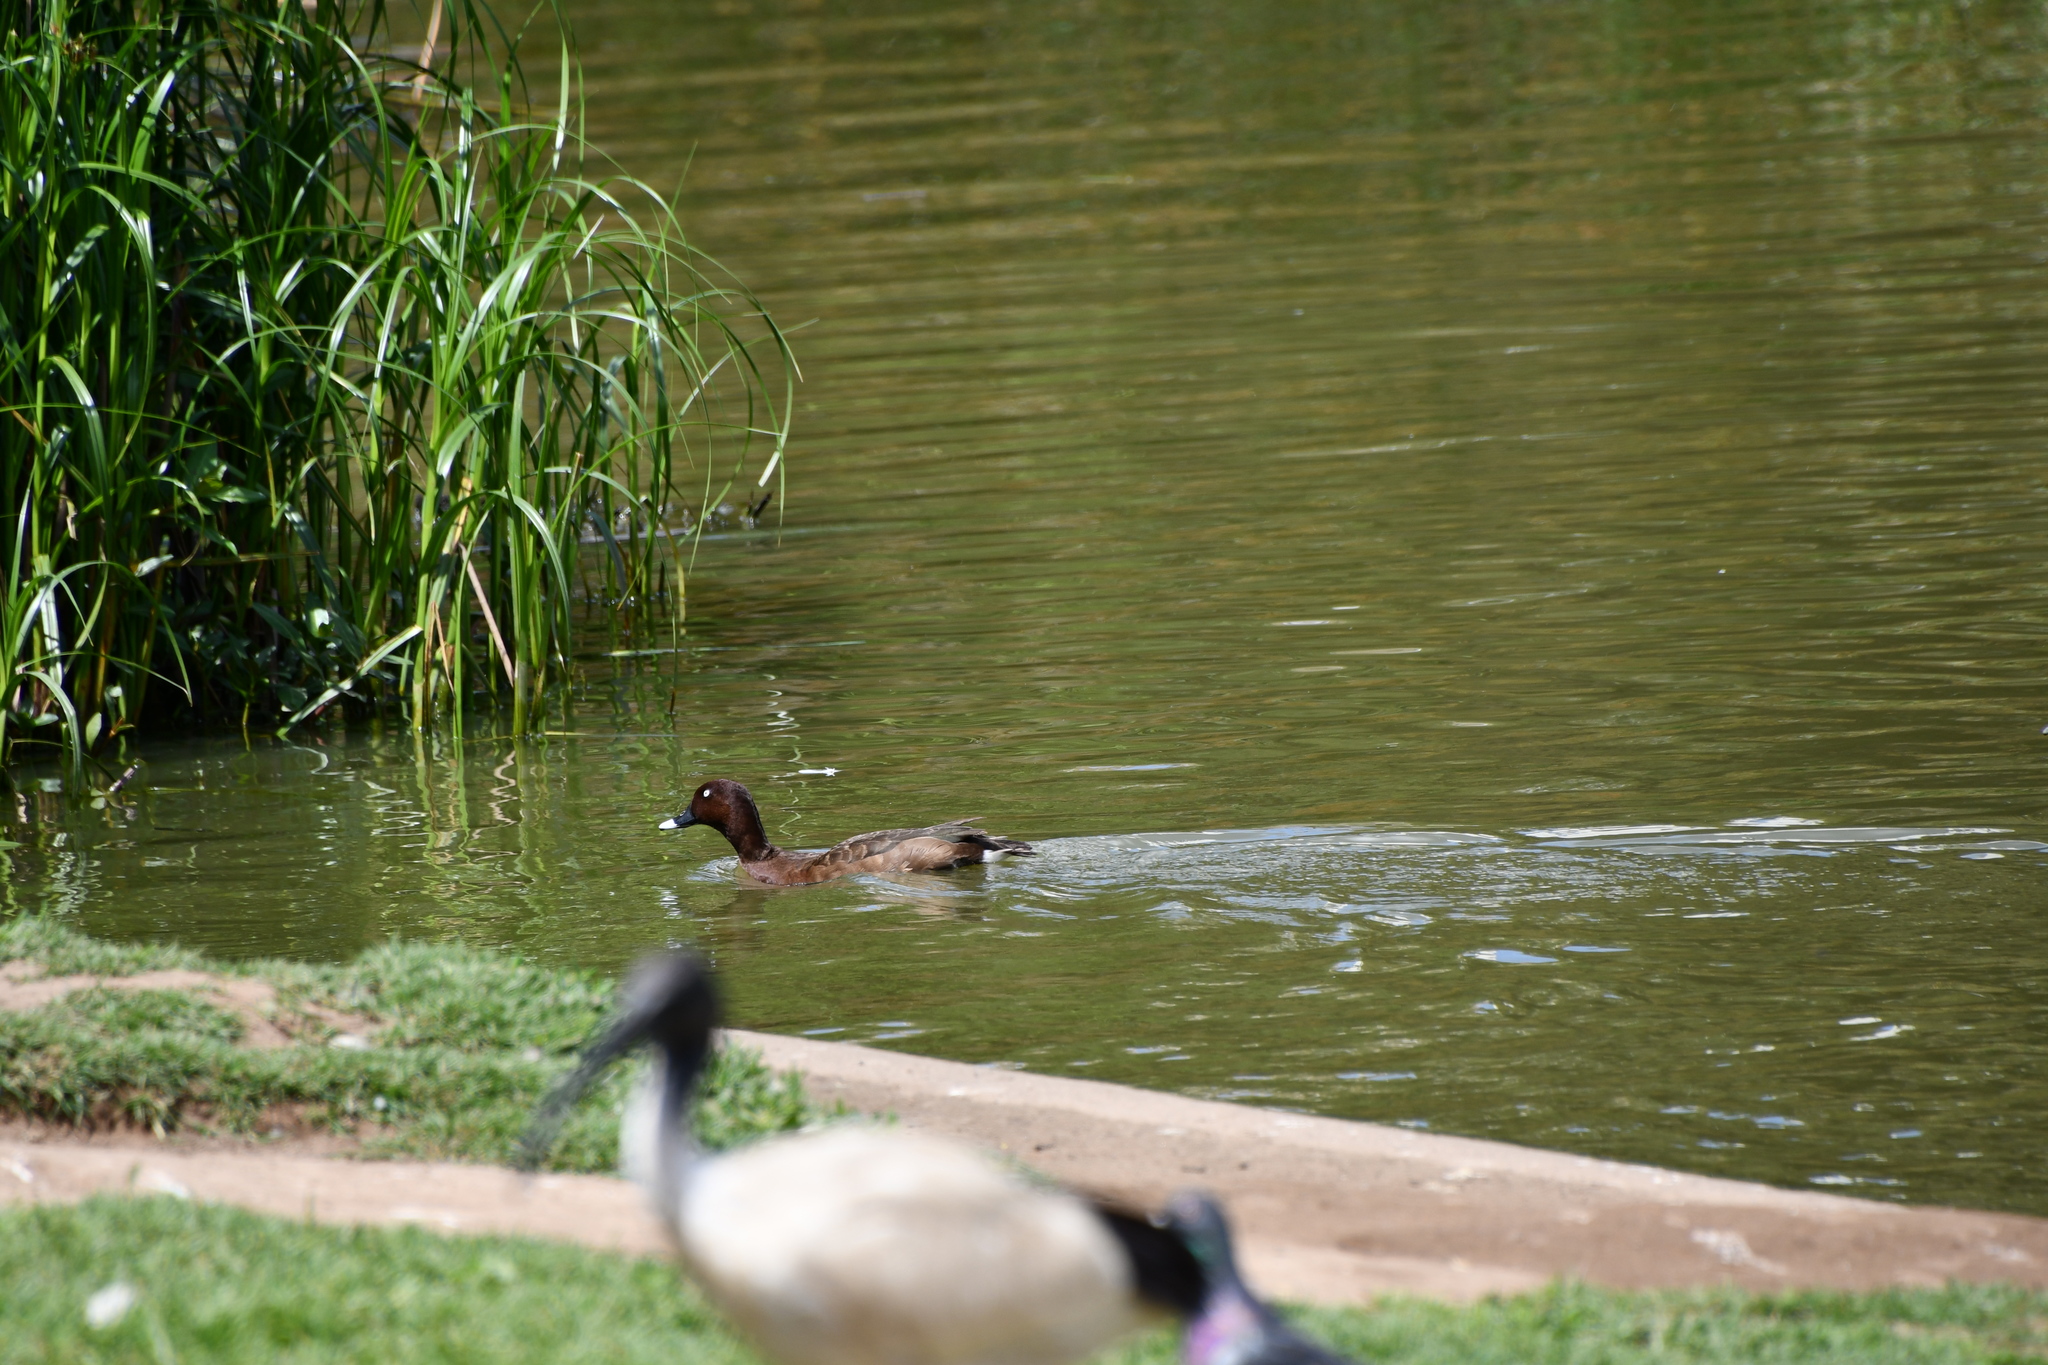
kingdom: Animalia
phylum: Chordata
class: Aves
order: Anseriformes
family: Anatidae
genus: Aythya
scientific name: Aythya australis
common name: Hardhead
